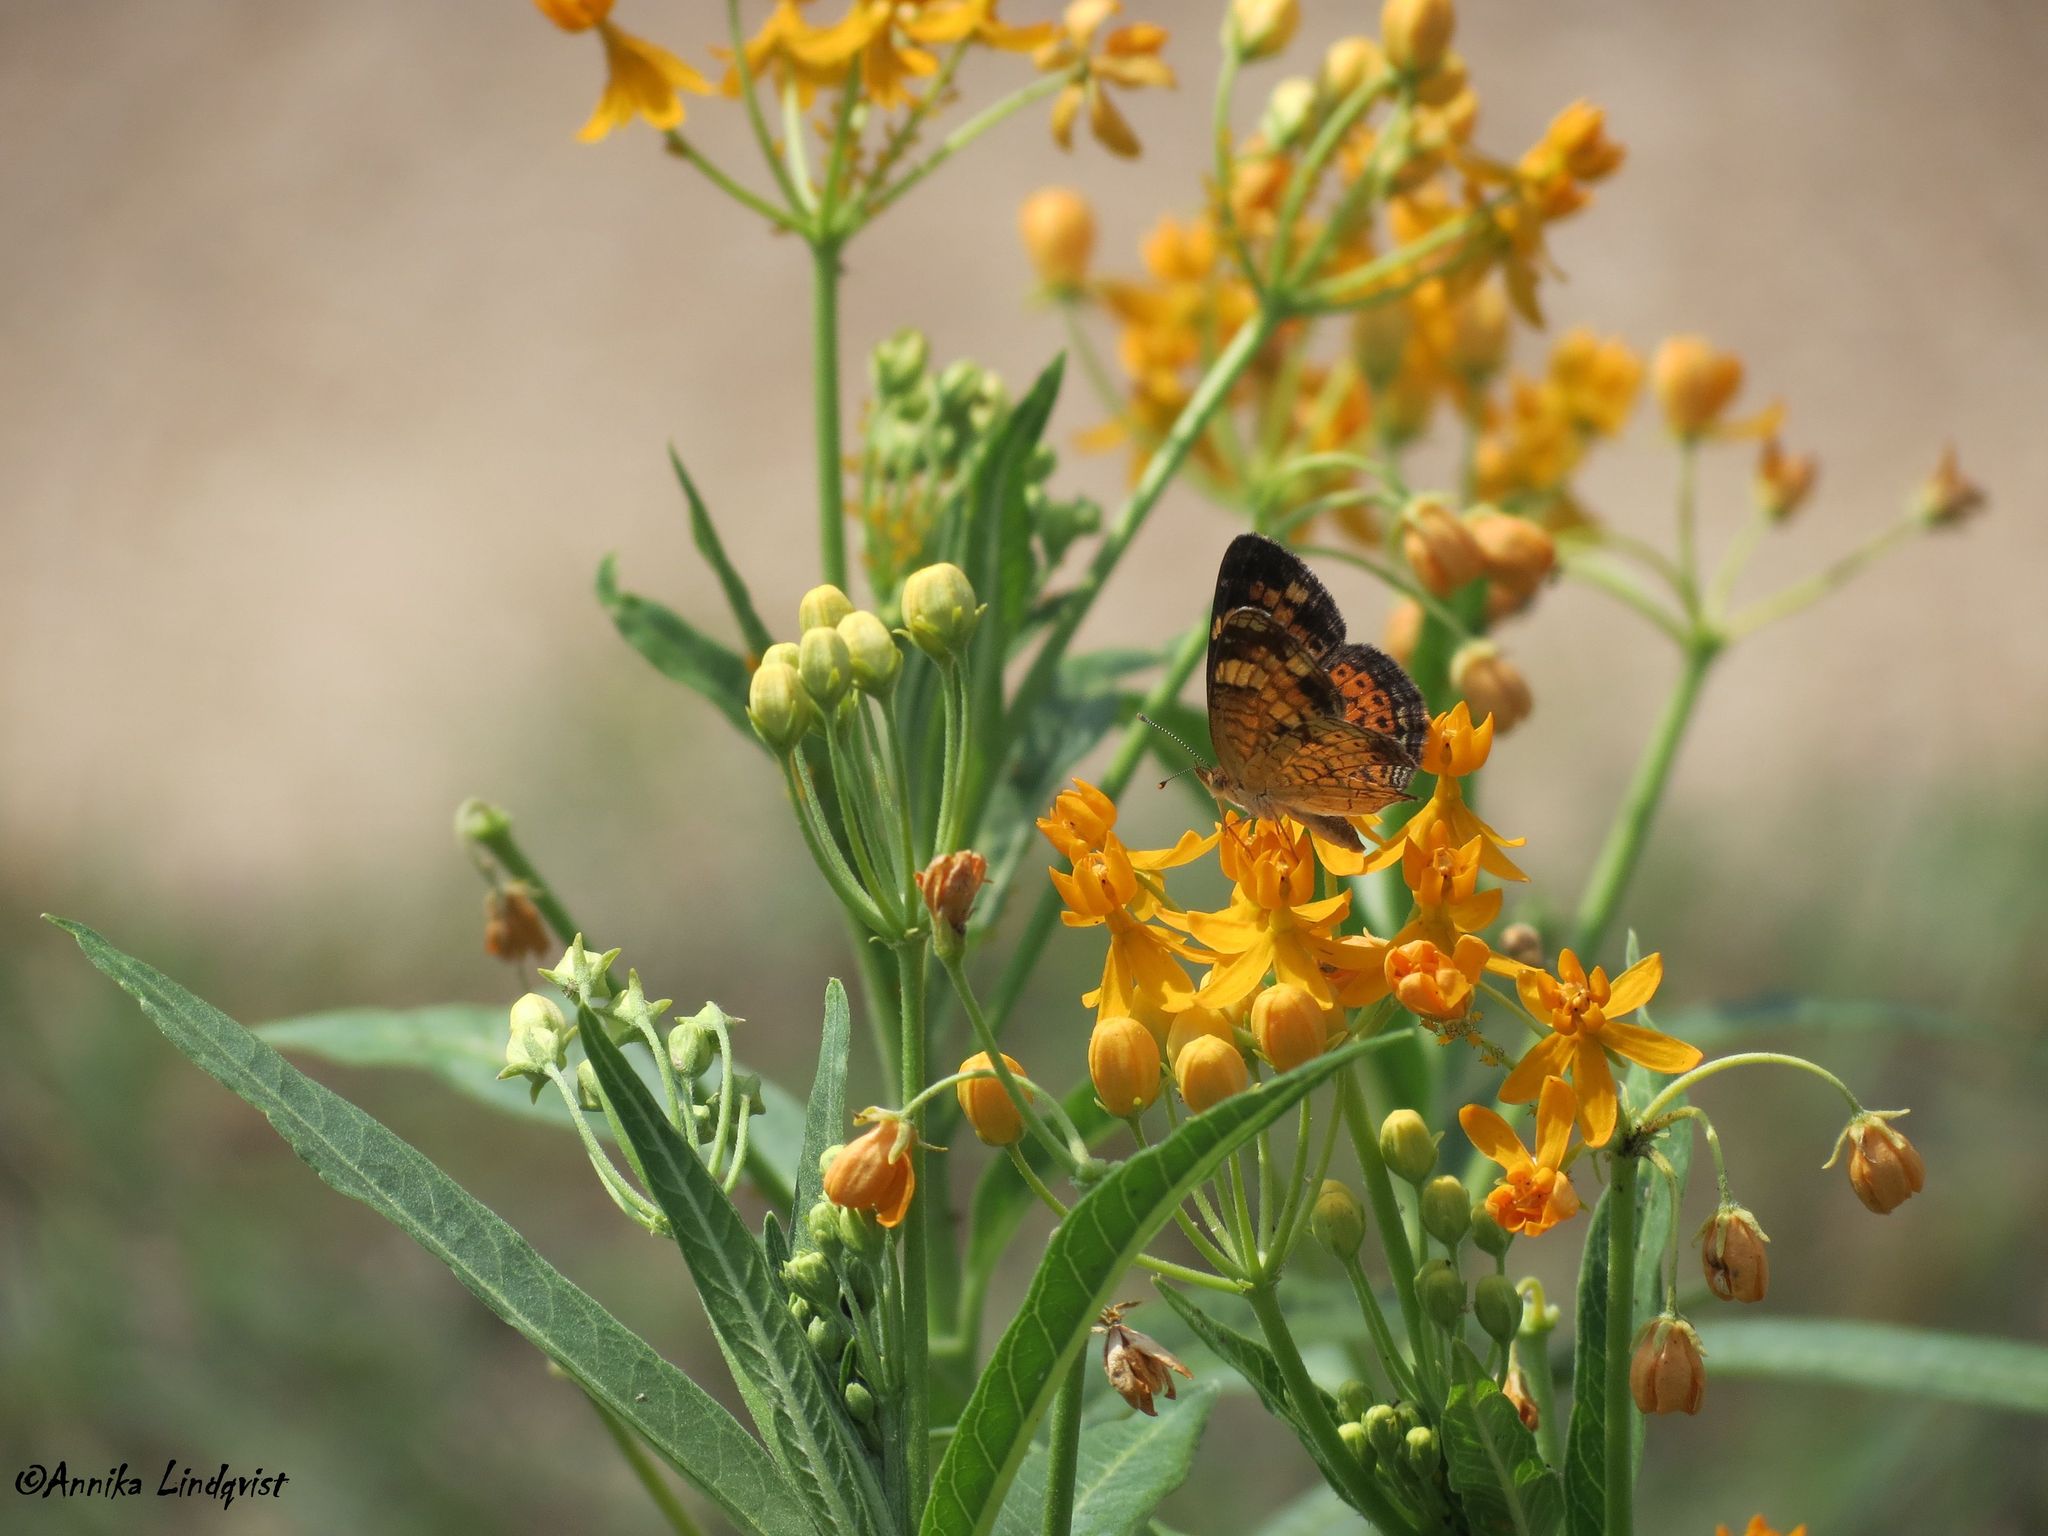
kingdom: Animalia
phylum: Arthropoda
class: Insecta
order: Lepidoptera
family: Nymphalidae
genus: Phyciodes
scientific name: Phyciodes tharos
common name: Pearl crescent
